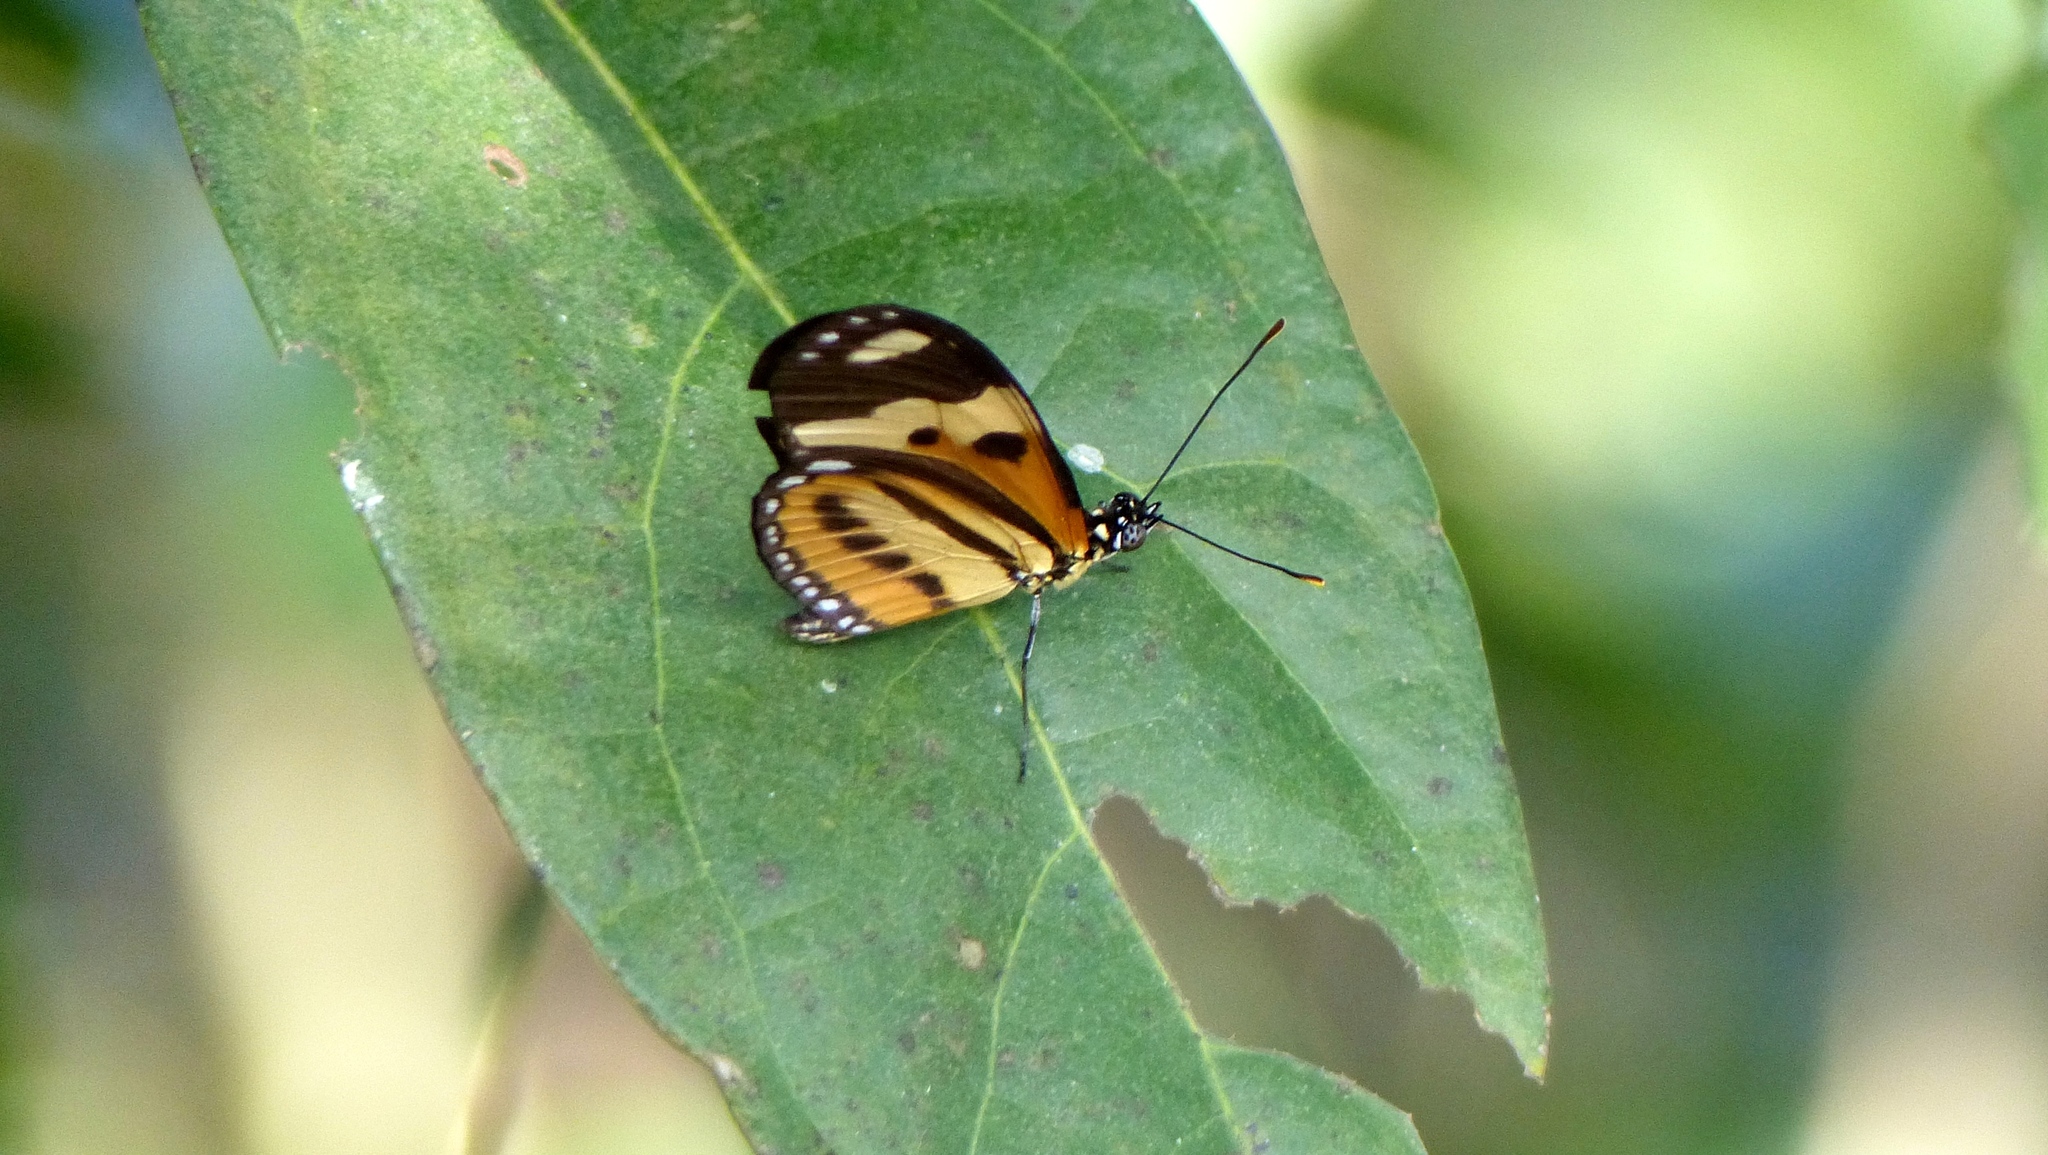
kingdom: Animalia
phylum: Arthropoda
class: Insecta
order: Lepidoptera
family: Nymphalidae
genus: Eueides
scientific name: Eueides isabella
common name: Isabella's longwing
